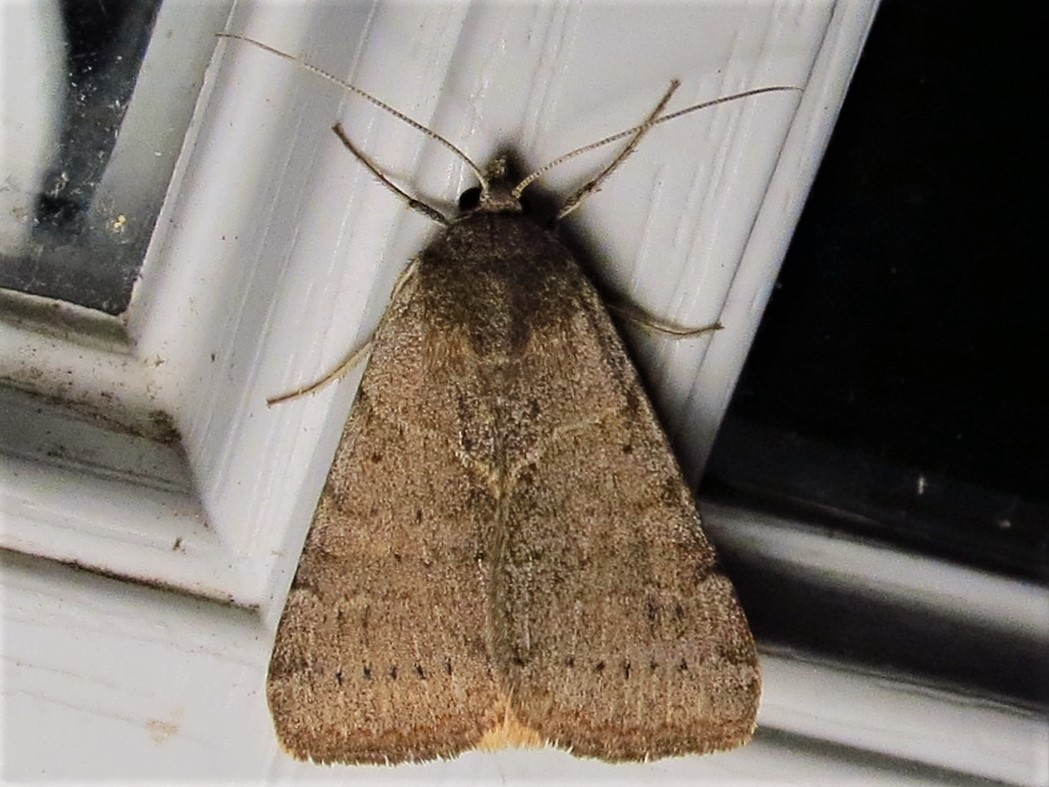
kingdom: Animalia
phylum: Arthropoda
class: Insecta
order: Lepidoptera
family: Erebidae
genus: Caenurgina
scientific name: Caenurgina erechtea
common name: Forage looper moth
